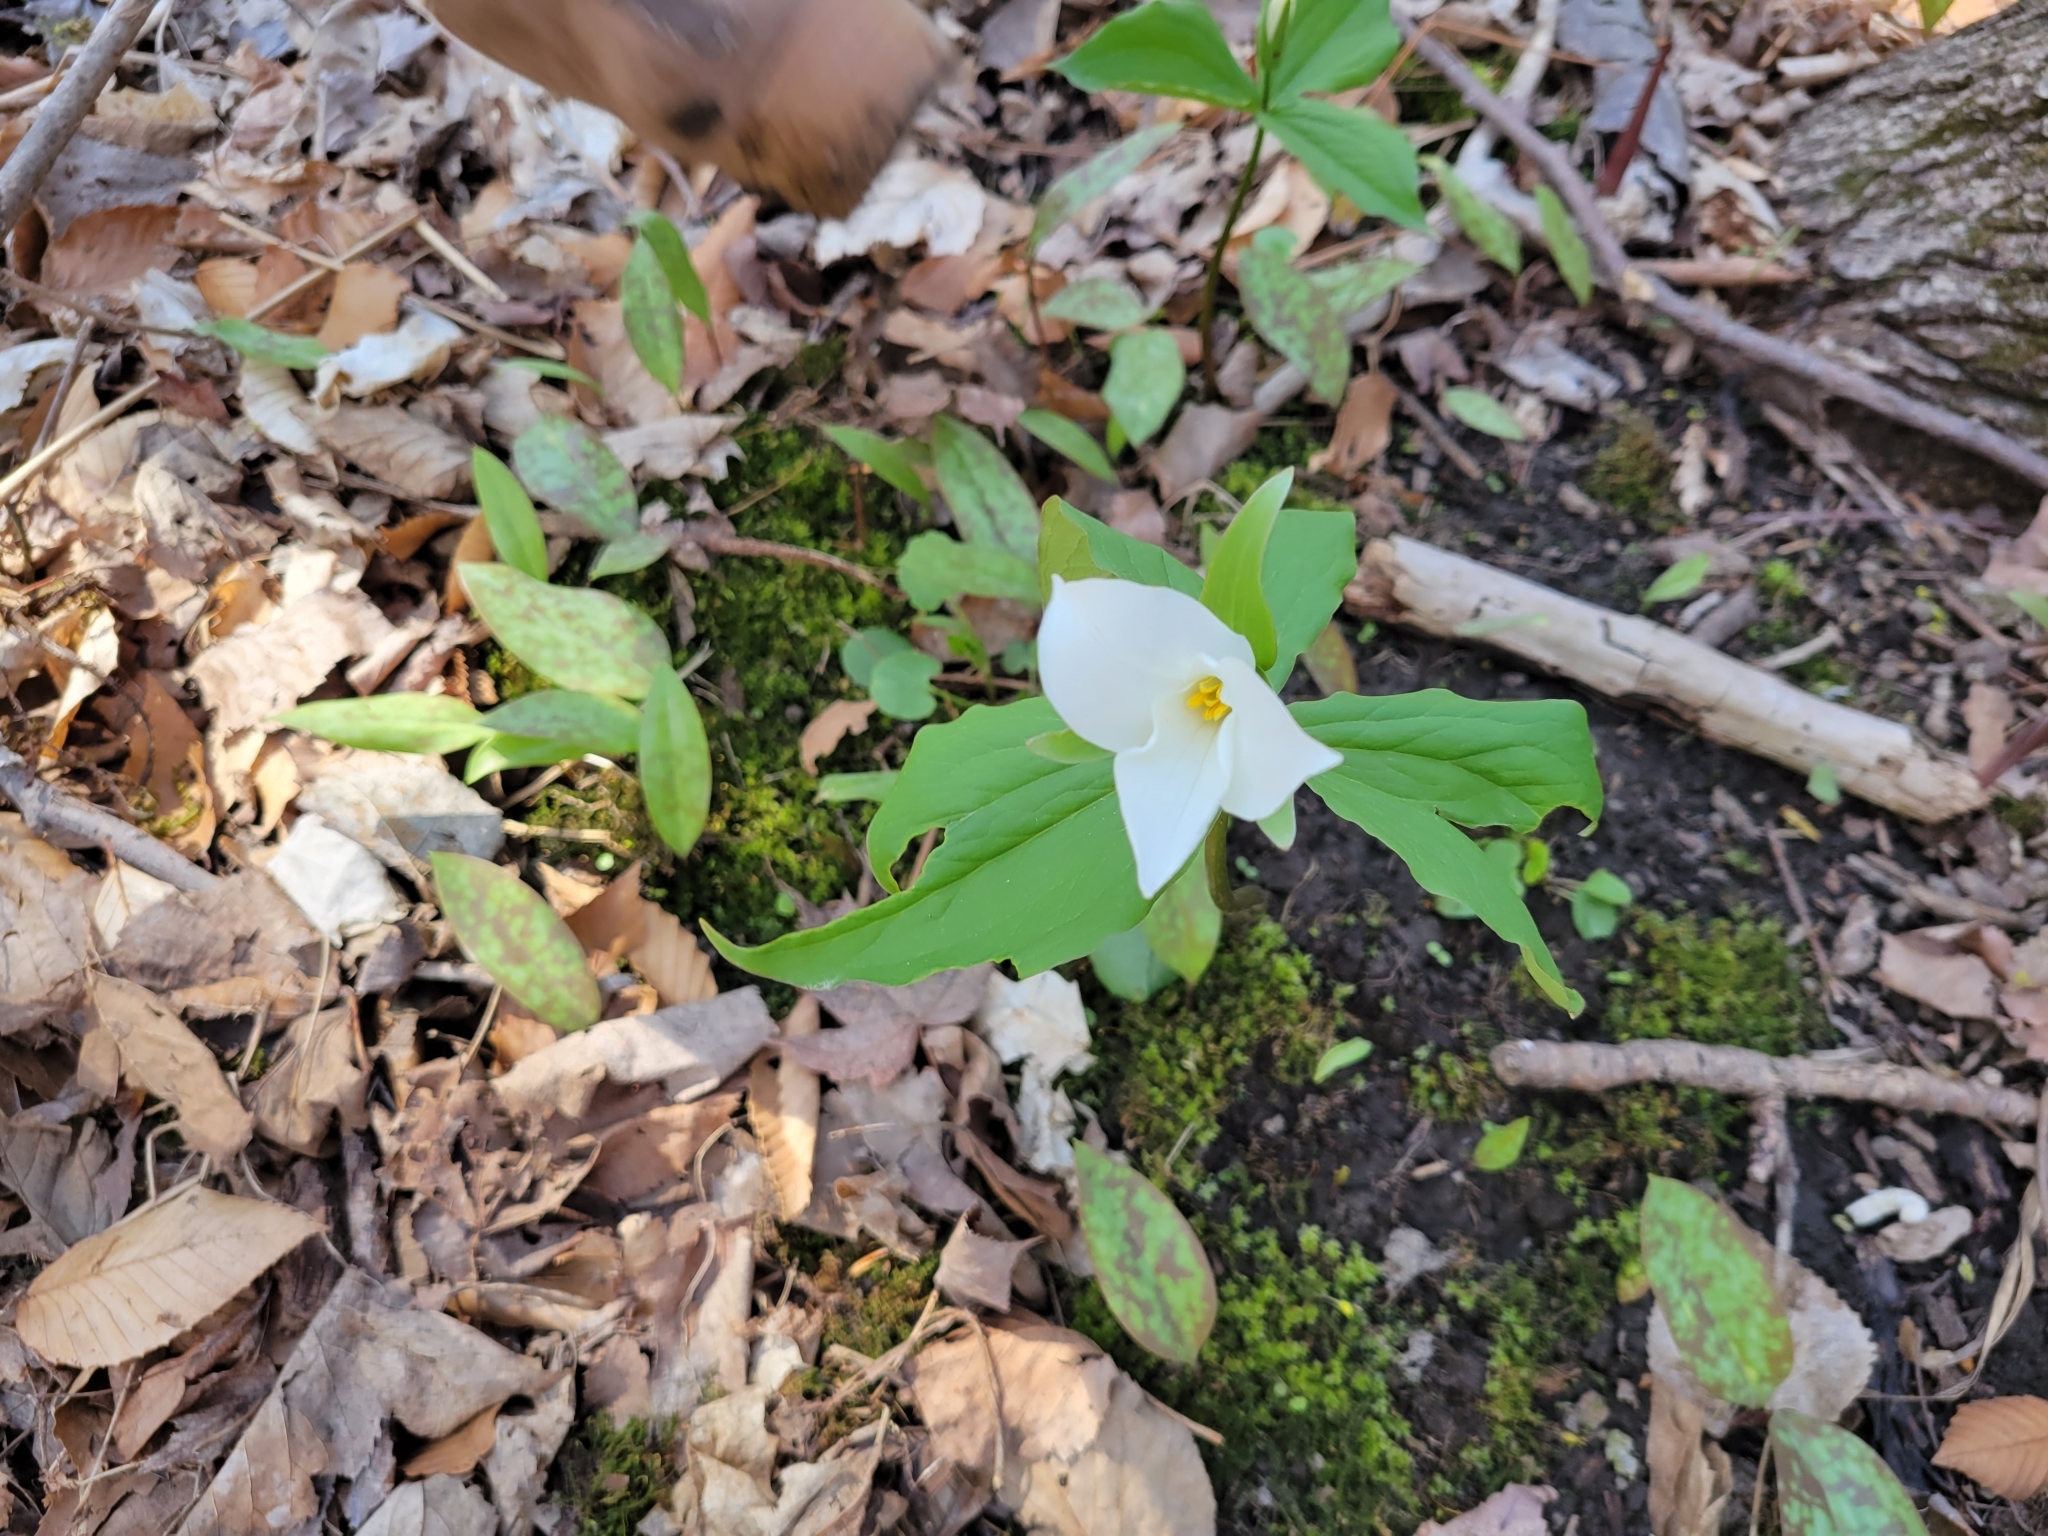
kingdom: Plantae
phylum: Tracheophyta
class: Liliopsida
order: Liliales
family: Melanthiaceae
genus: Trillium
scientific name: Trillium grandiflorum
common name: Great white trillium
